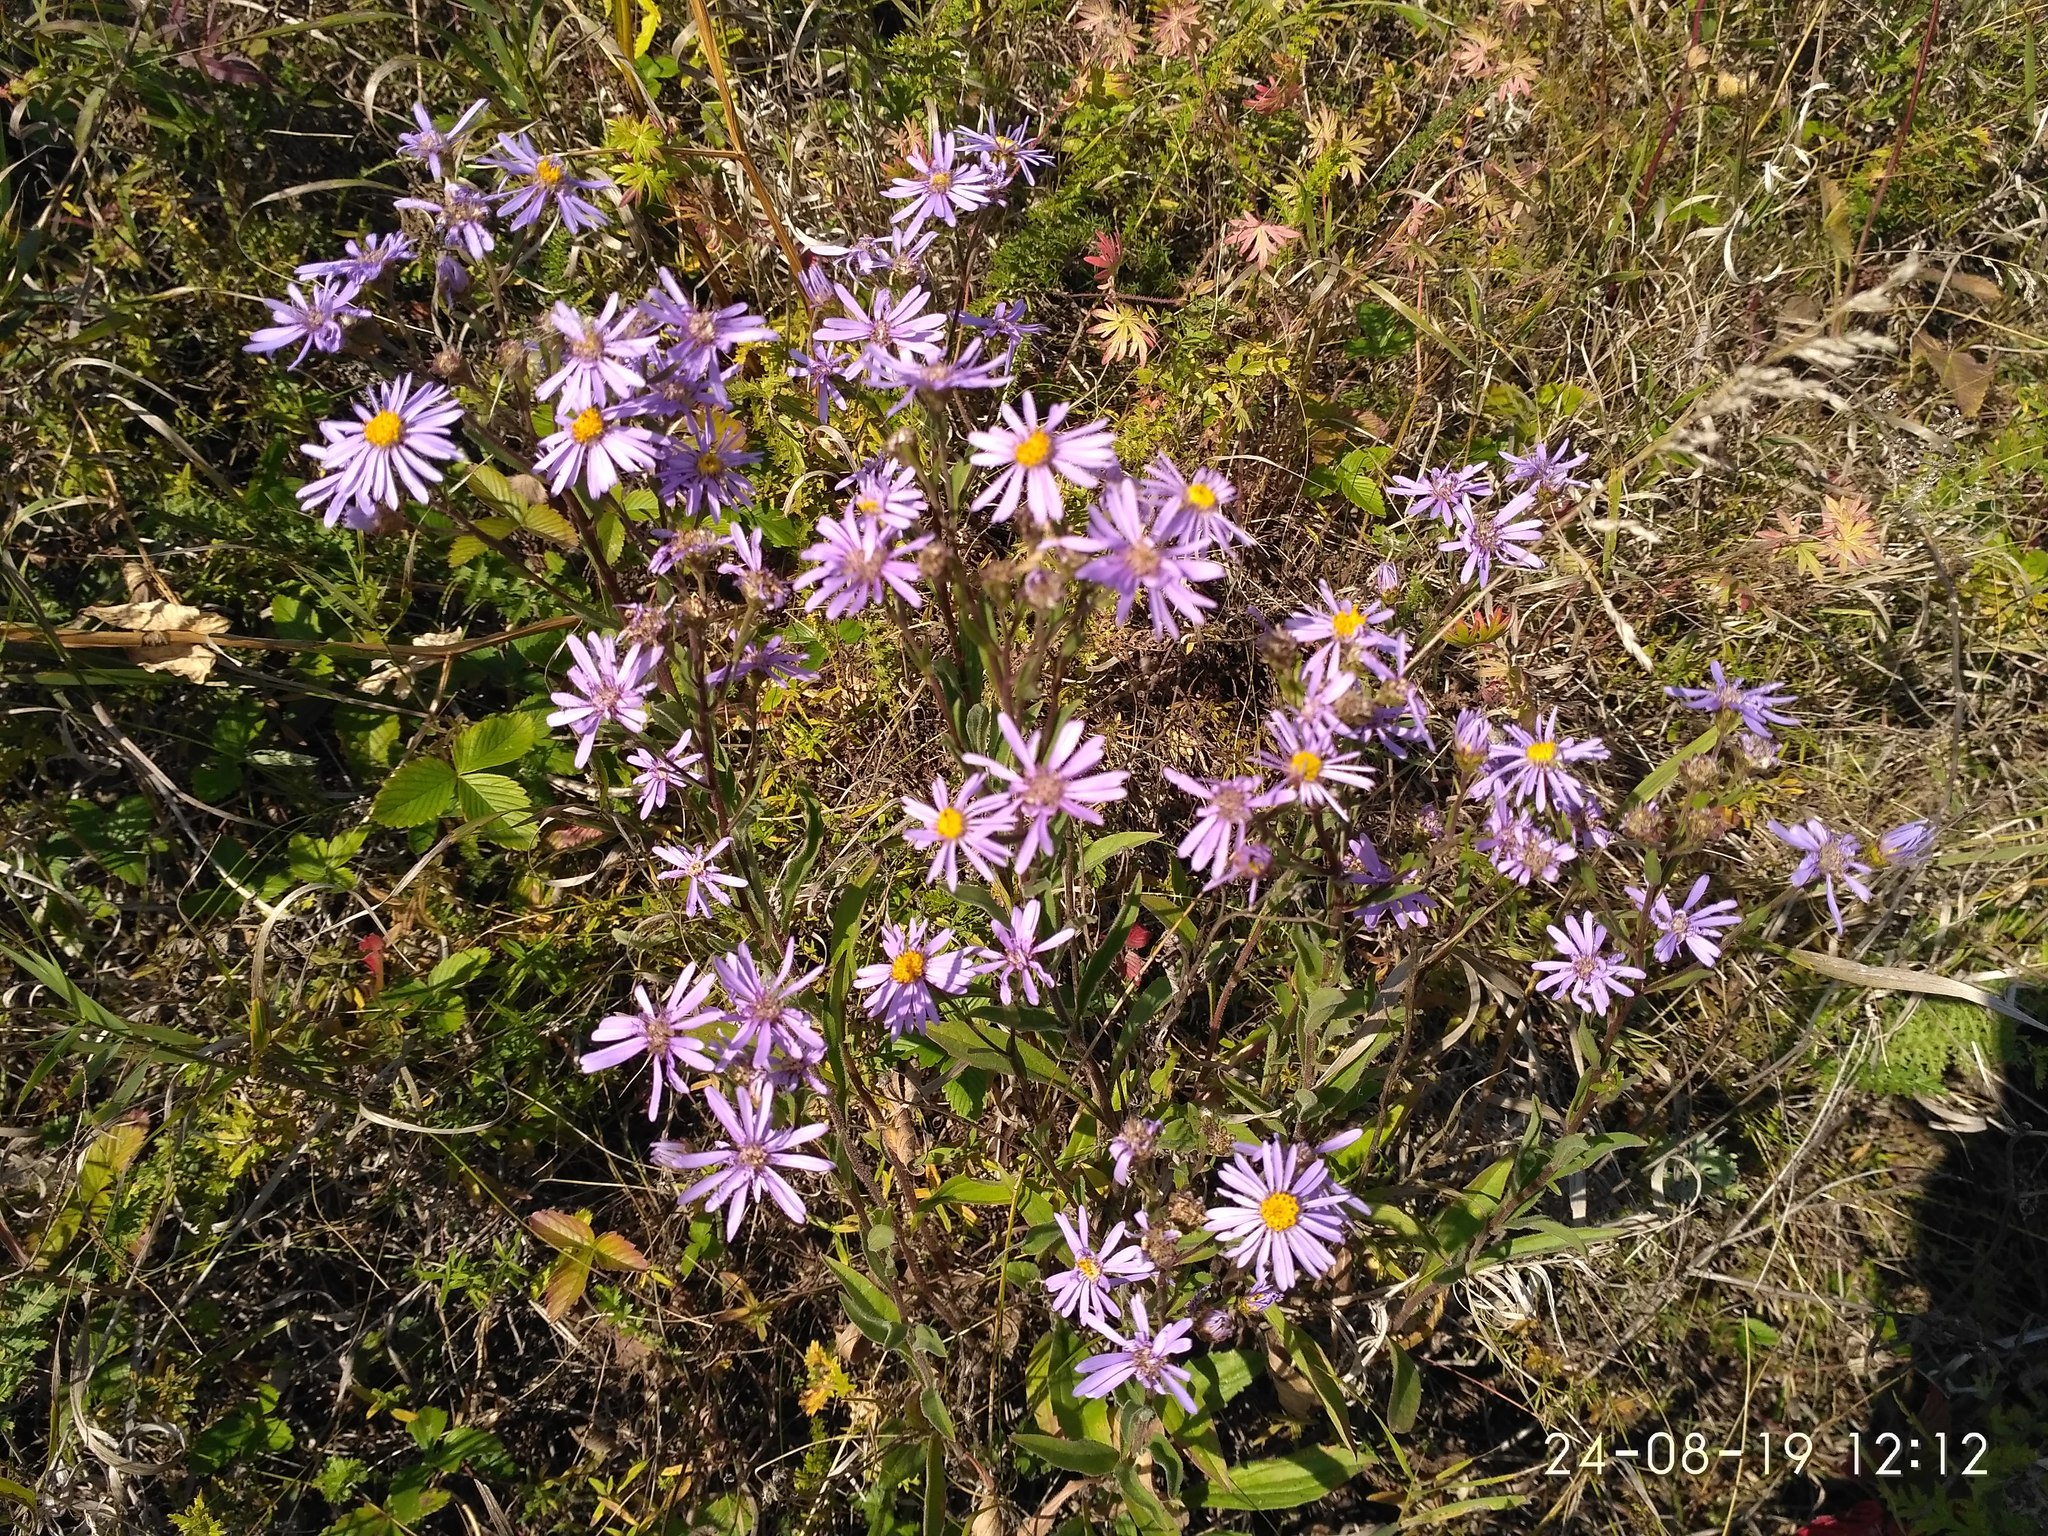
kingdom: Plantae
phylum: Tracheophyta
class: Magnoliopsida
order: Asterales
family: Asteraceae
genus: Aster
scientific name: Aster amellus
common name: European michaelmas daisy
